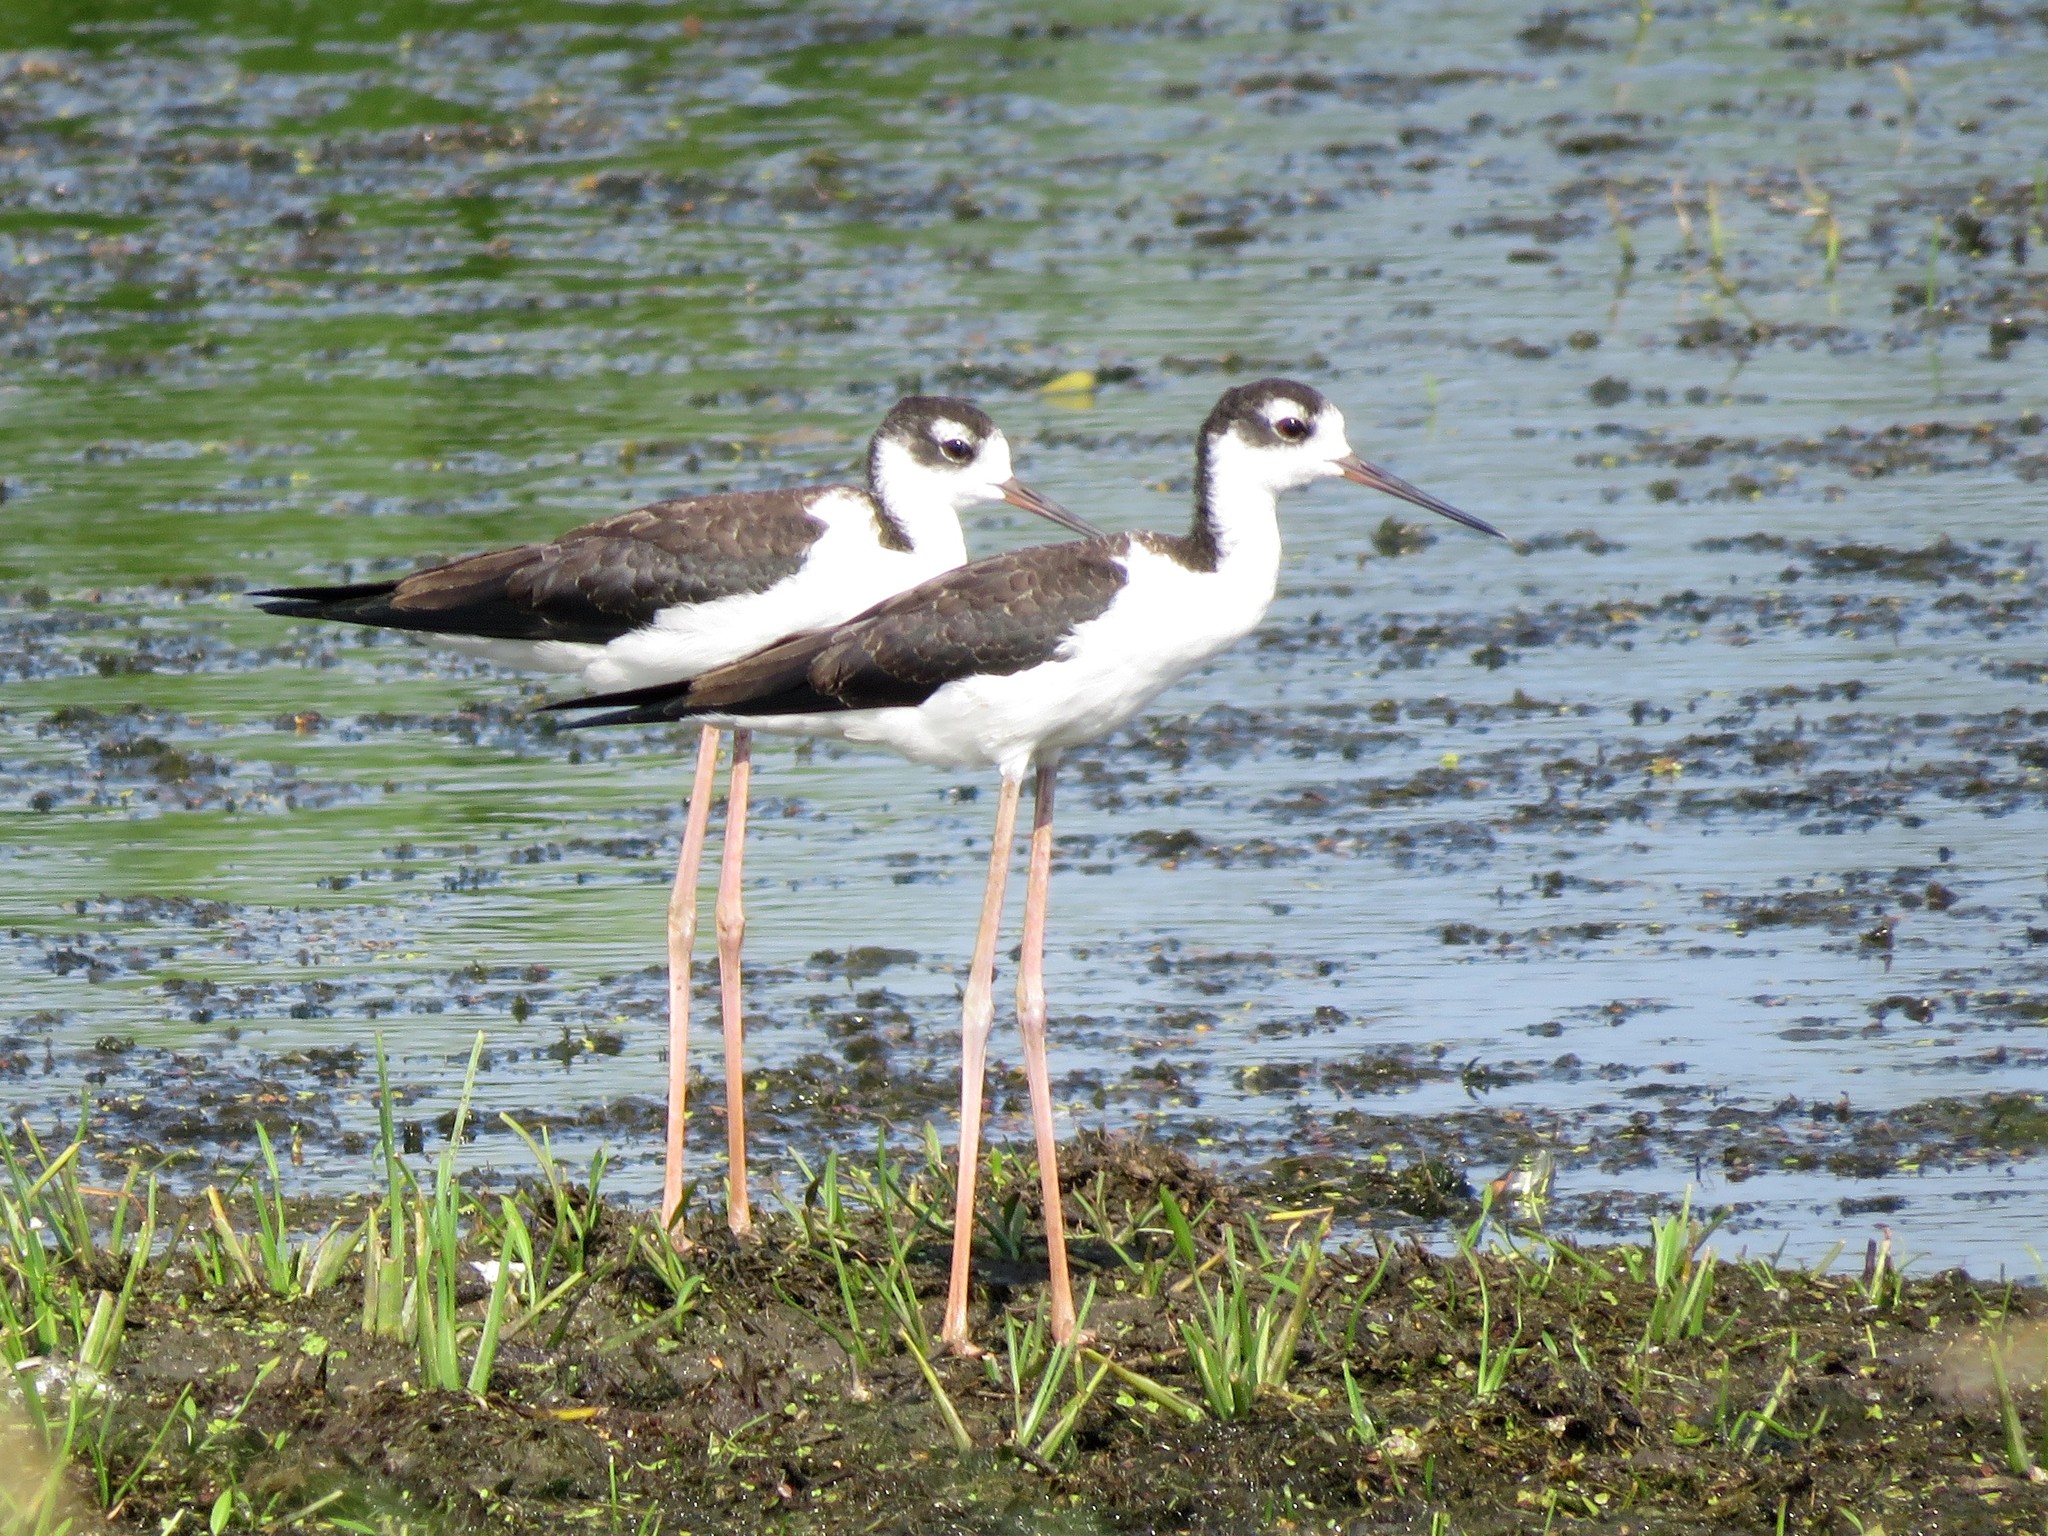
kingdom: Animalia
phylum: Chordata
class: Aves
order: Charadriiformes
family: Recurvirostridae
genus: Himantopus
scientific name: Himantopus mexicanus
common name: Black-necked stilt
